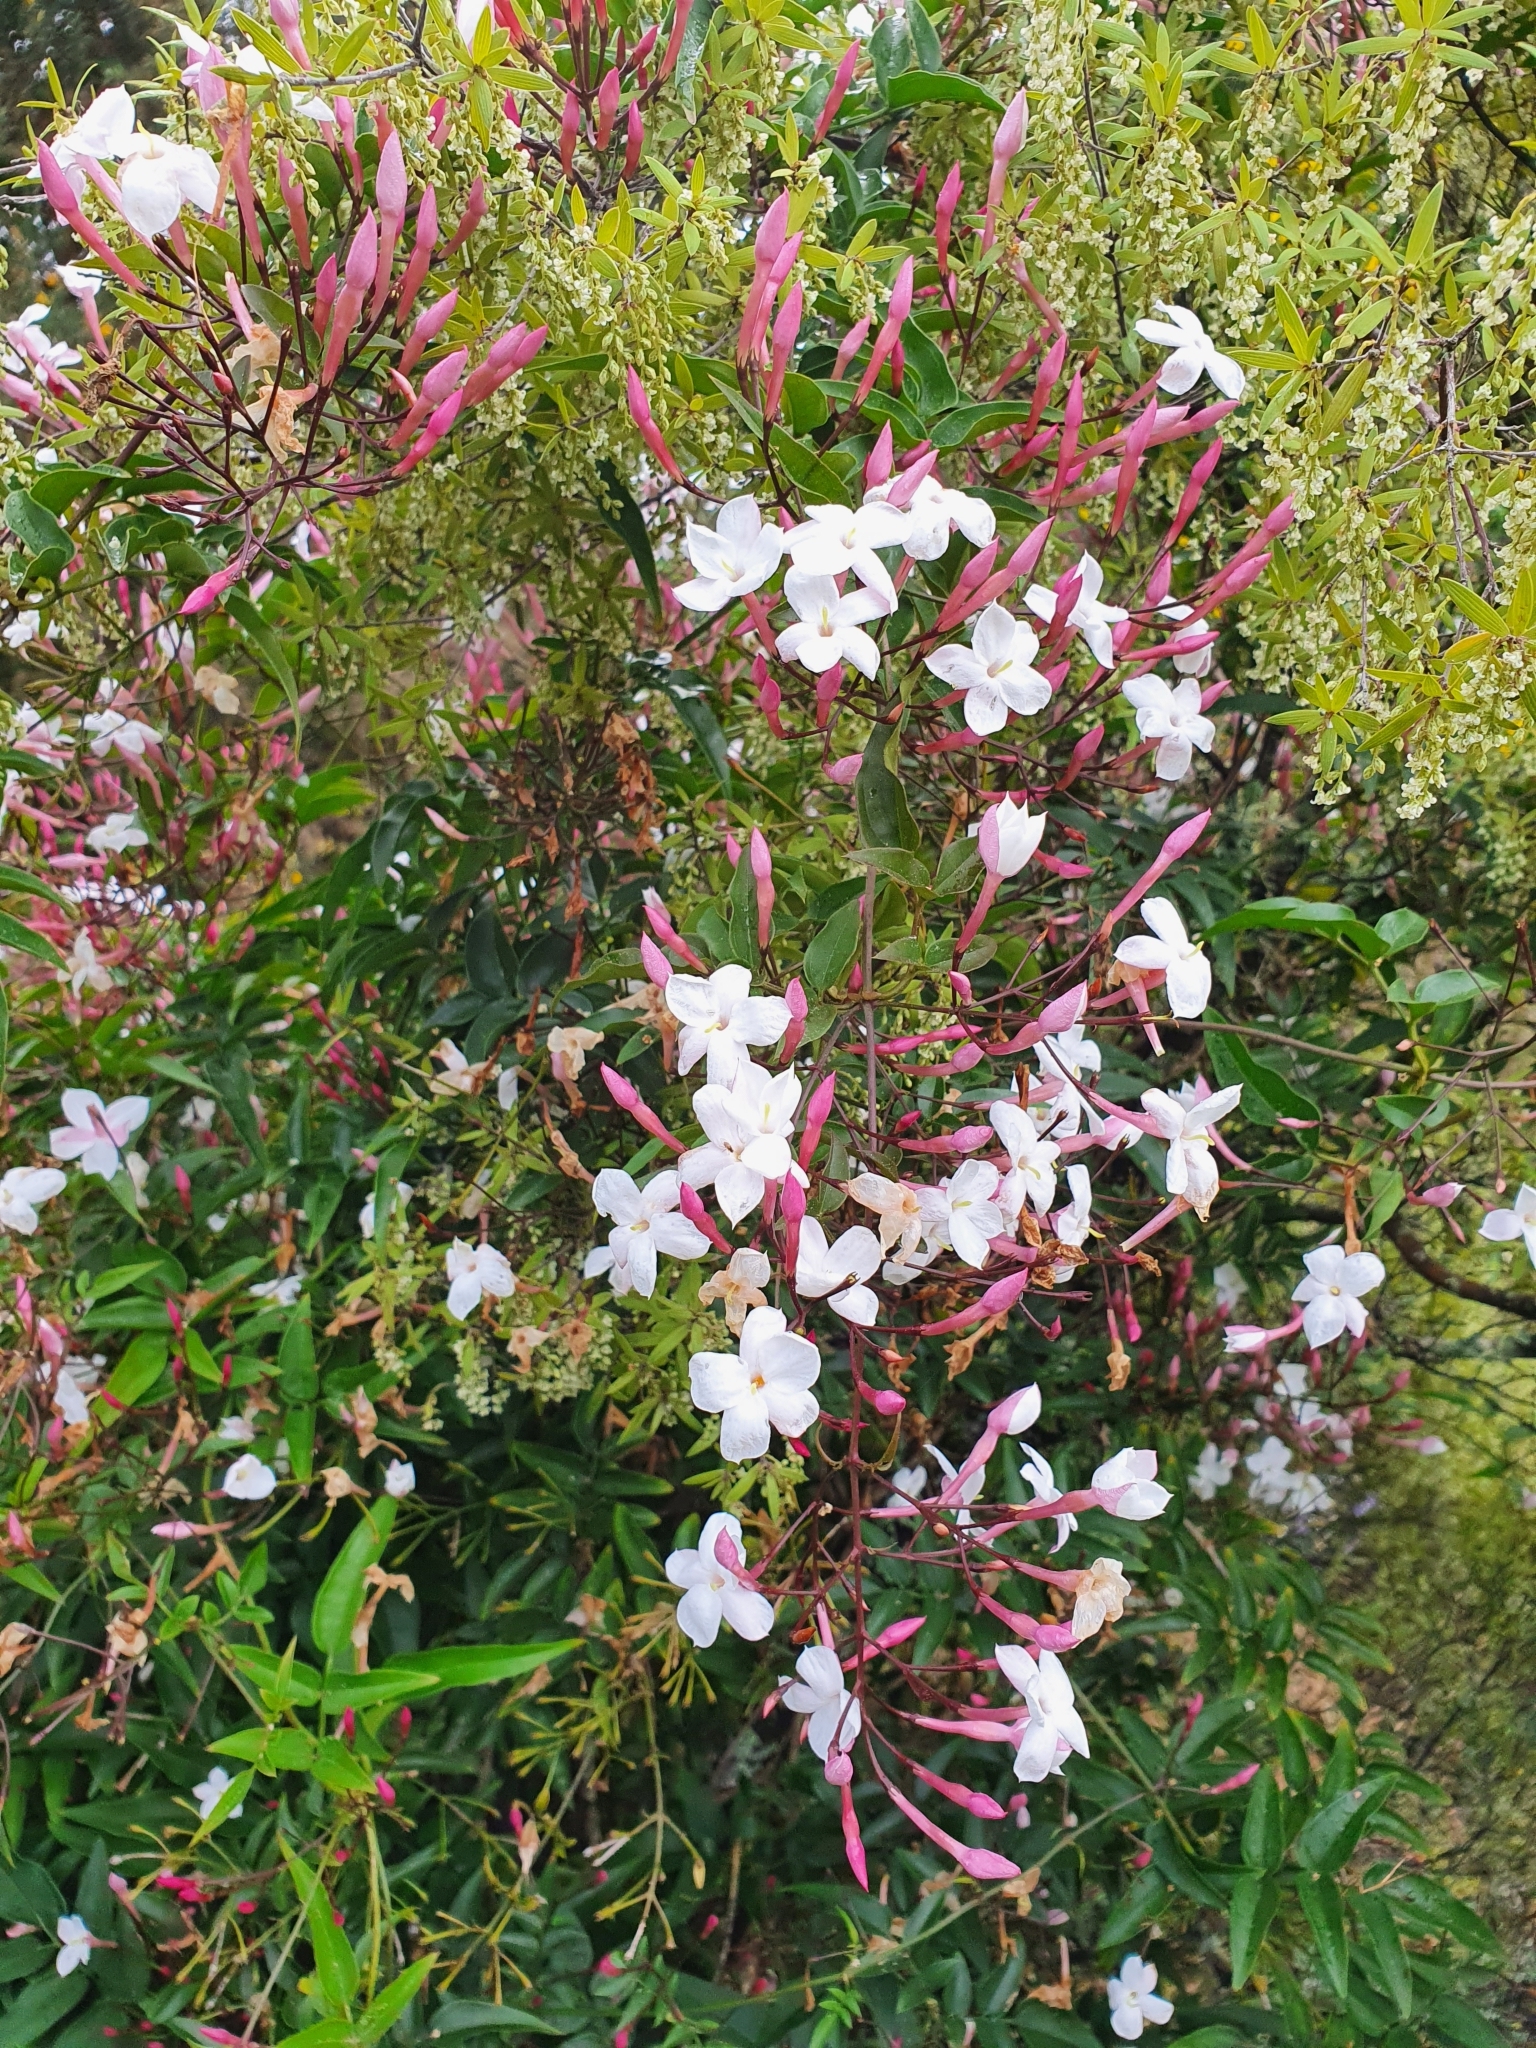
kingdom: Plantae
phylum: Tracheophyta
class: Magnoliopsida
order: Lamiales
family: Oleaceae
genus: Jasminum
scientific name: Jasminum polyanthum
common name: Pink jasmine
